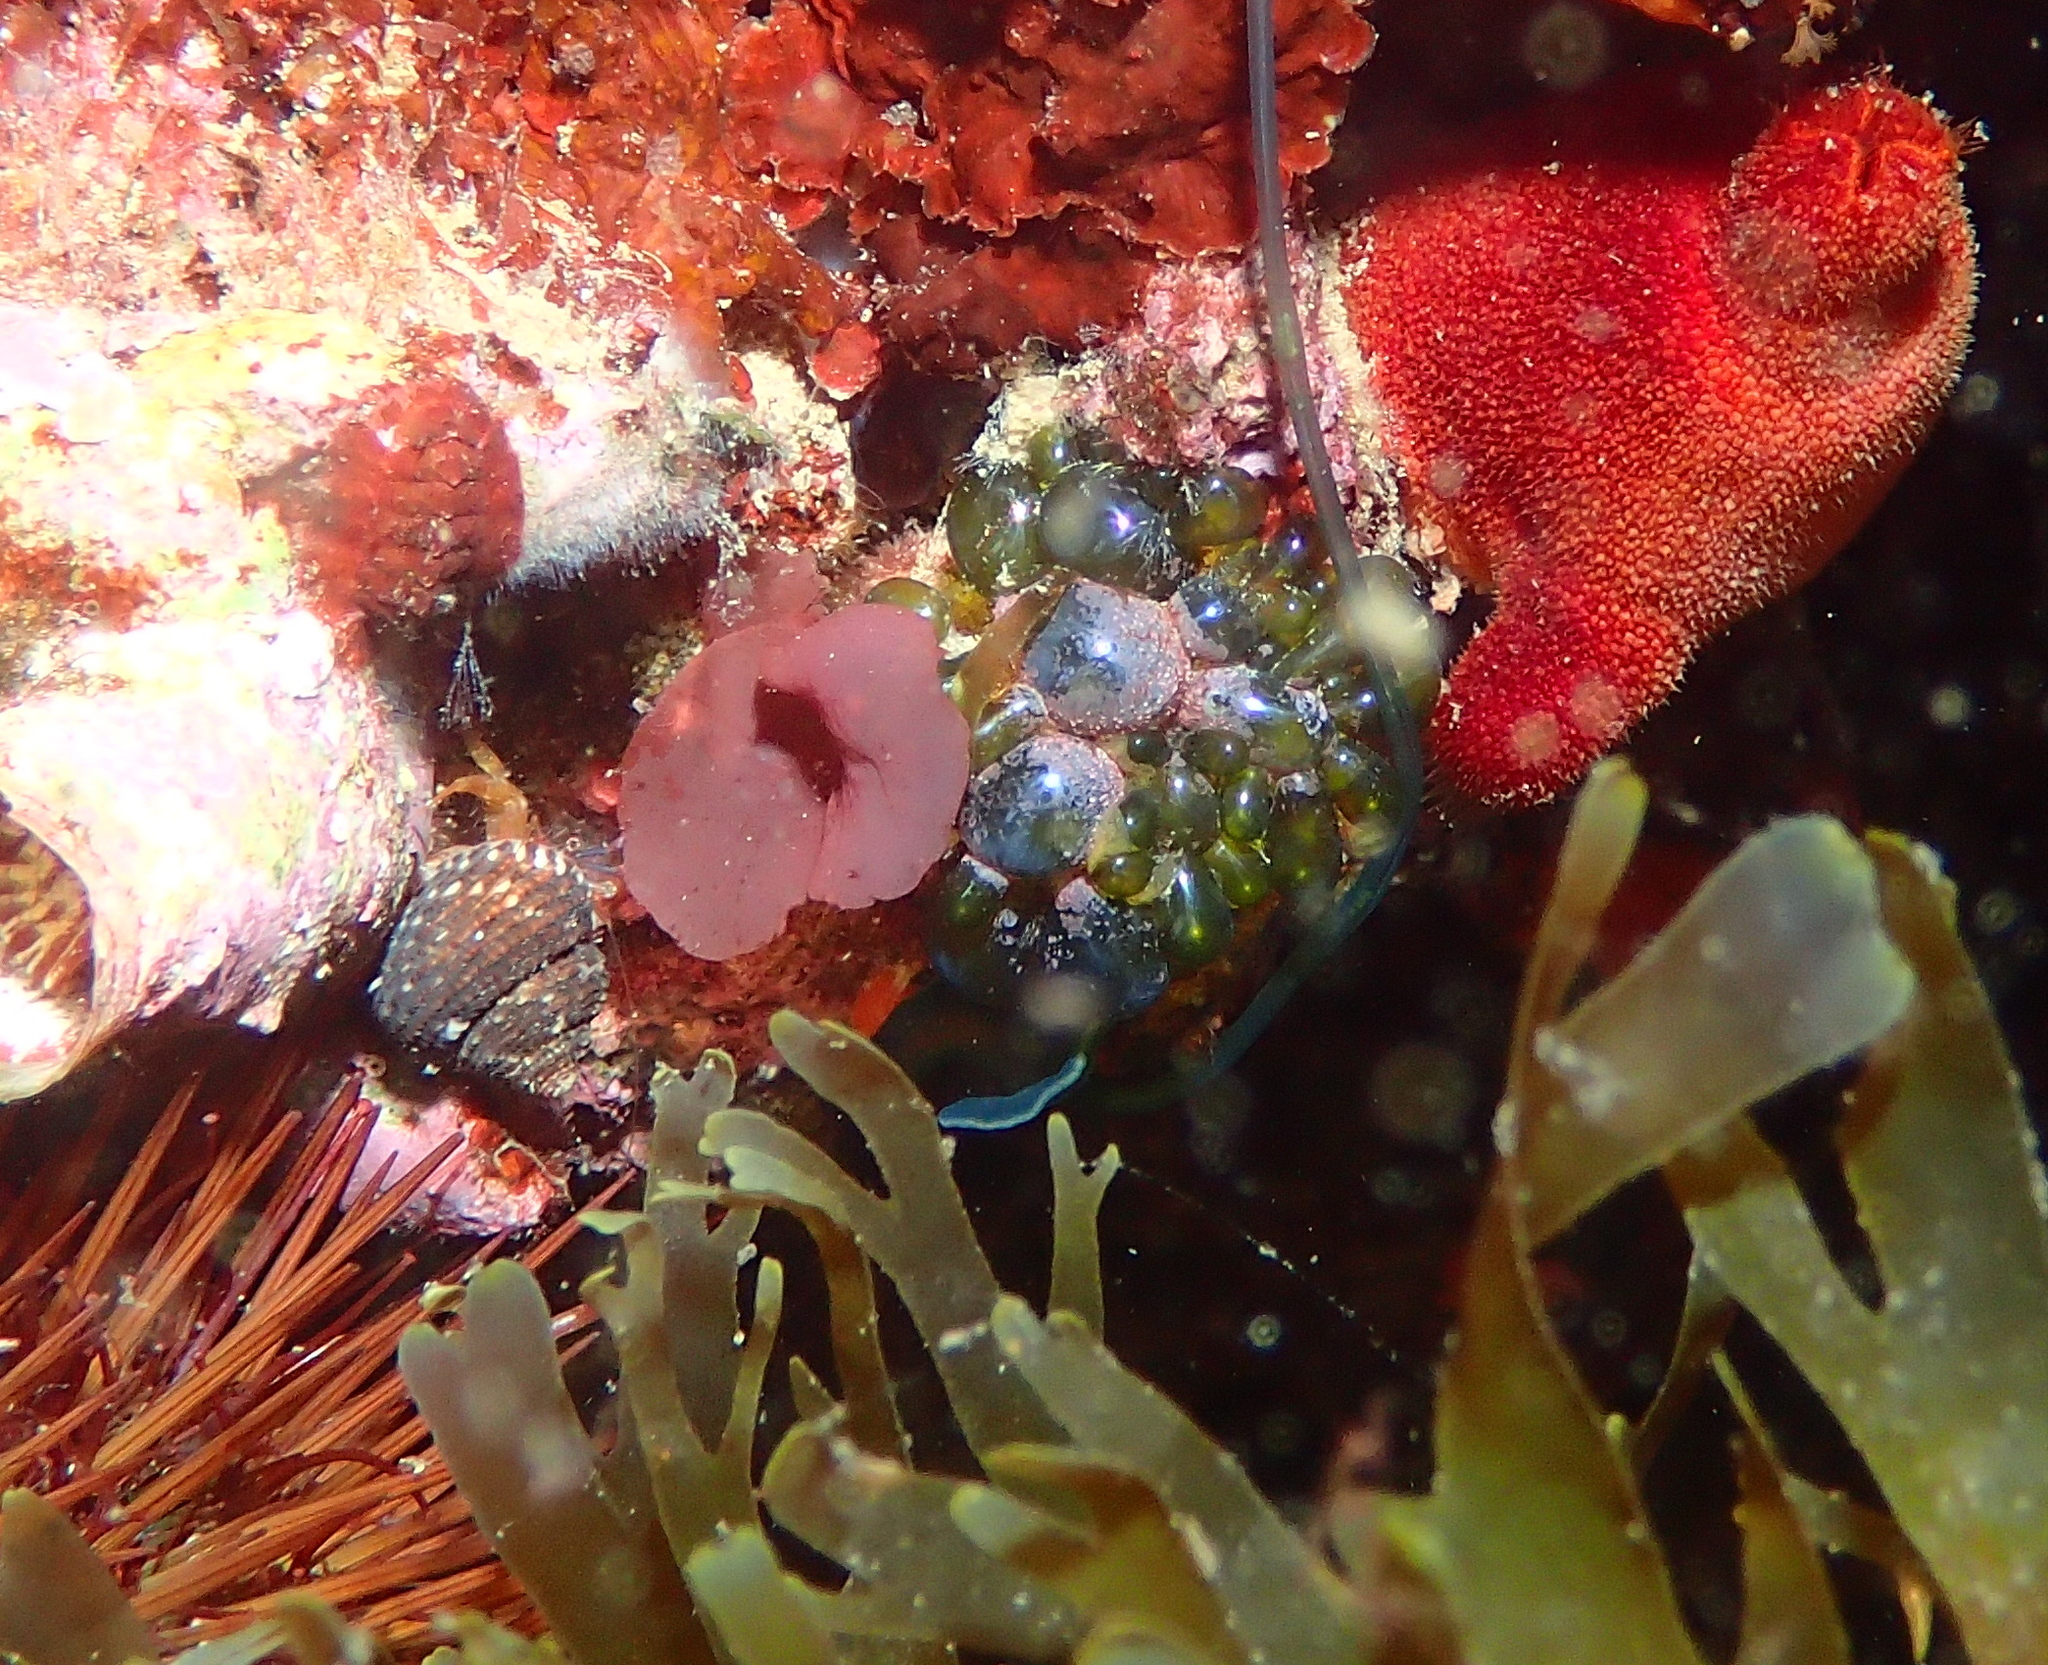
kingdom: Plantae
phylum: Chlorophyta
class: Ulvophyceae
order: Siphonocladales
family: Valoniaceae
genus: Valonia
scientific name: Valonia macrophysa
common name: Elongated sea pearls
